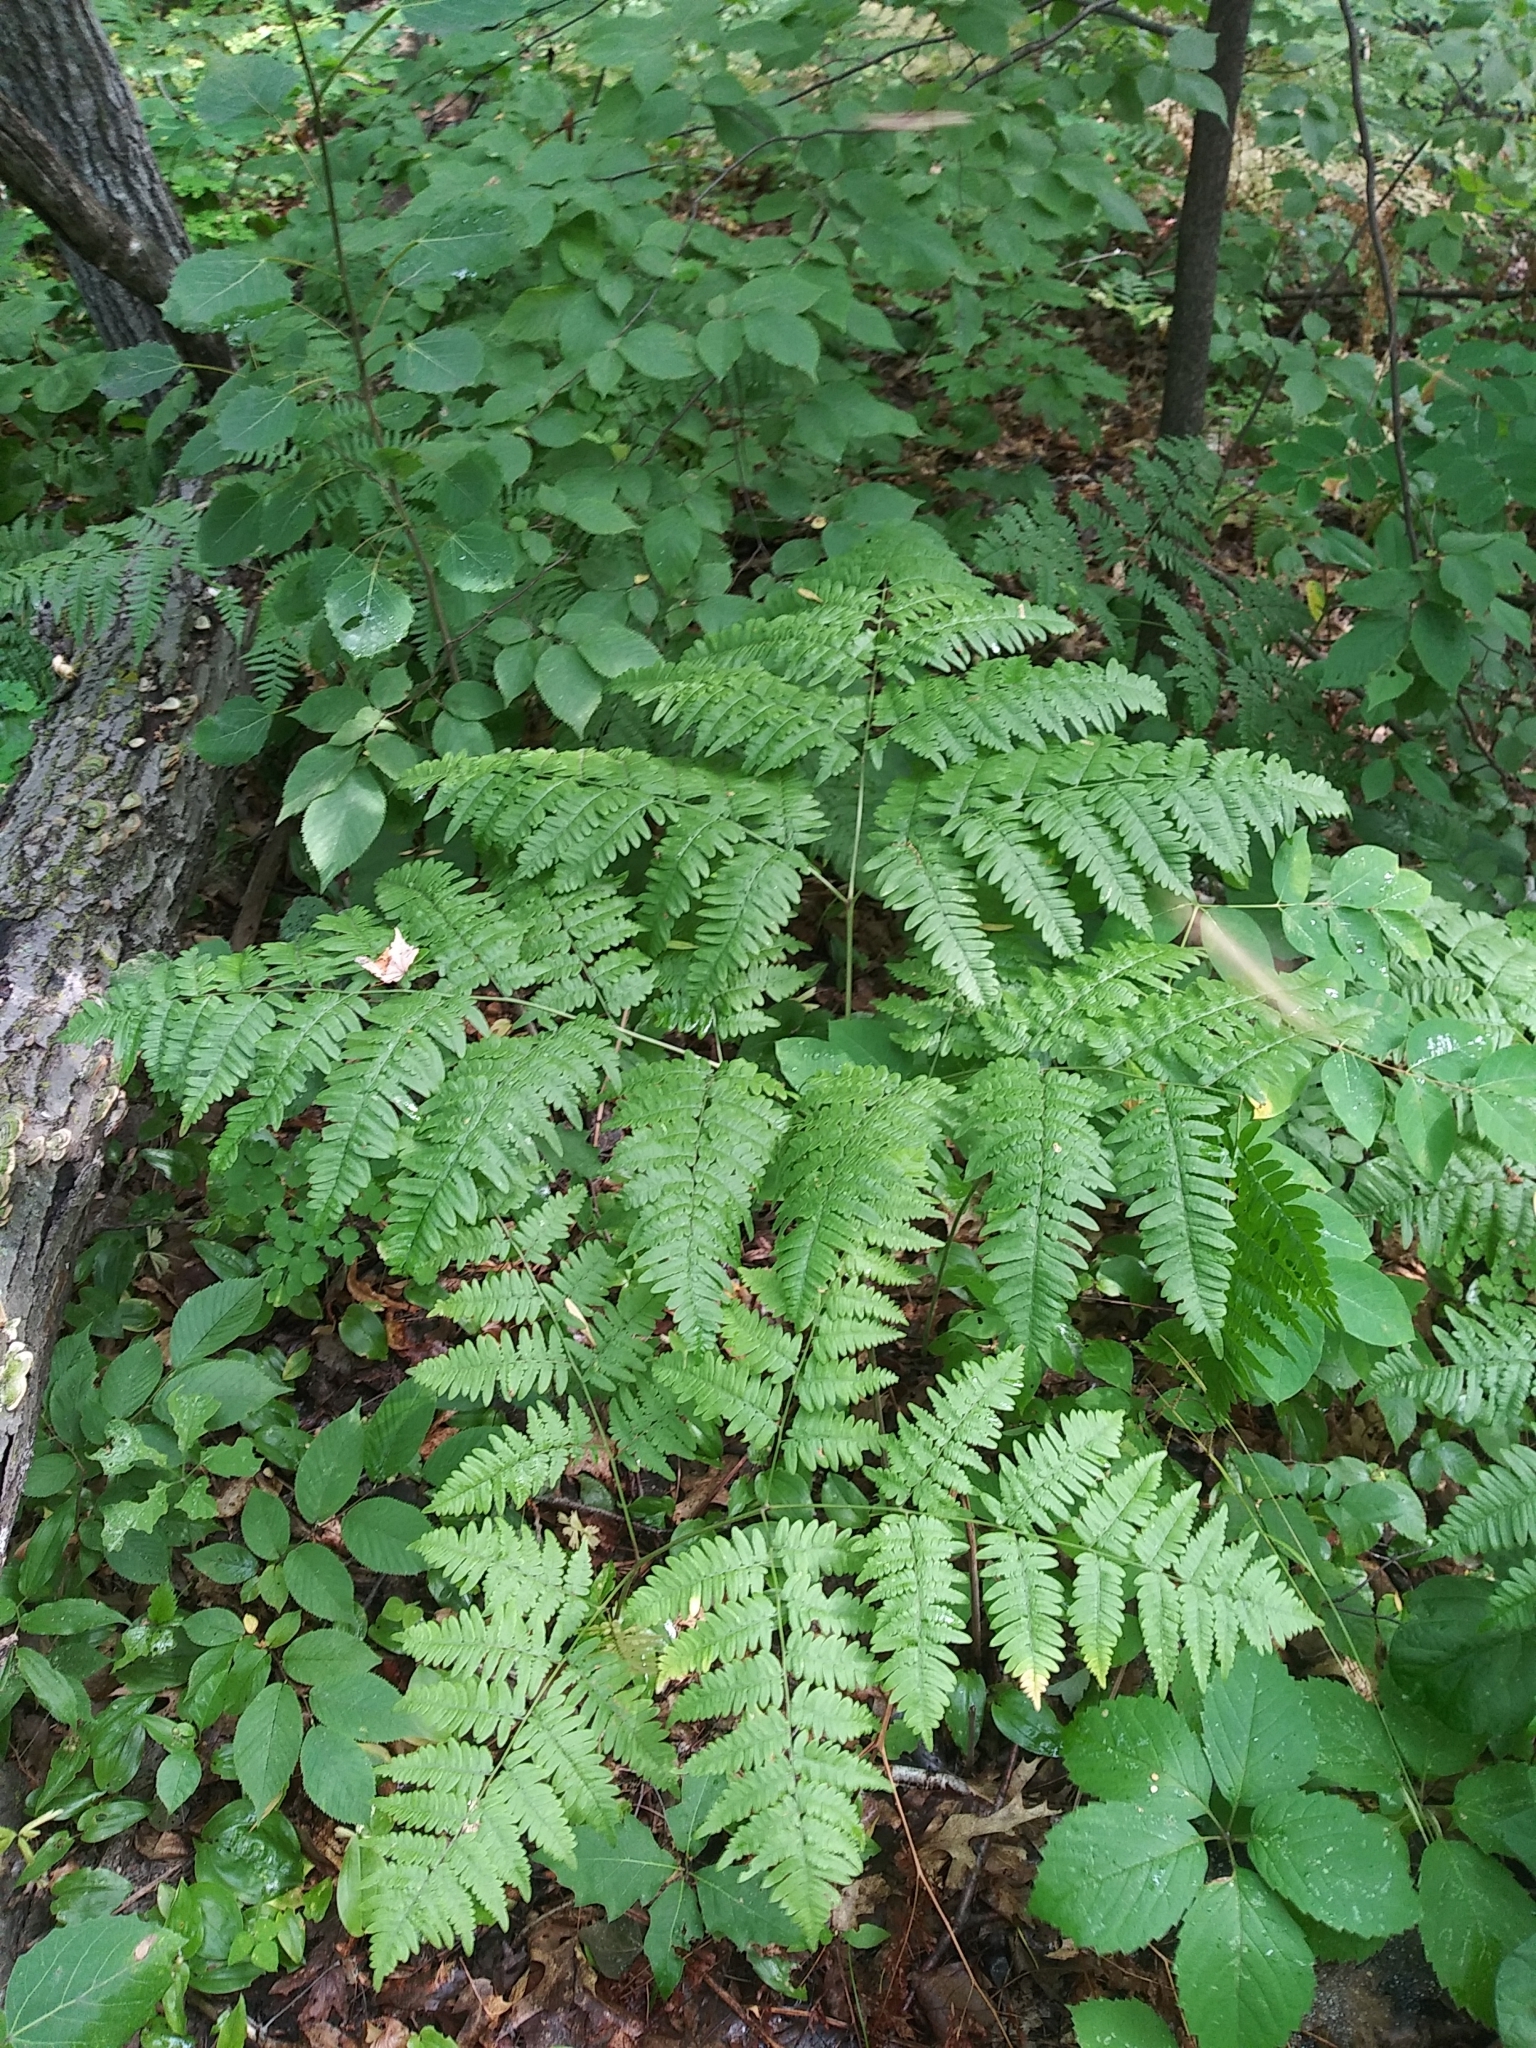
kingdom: Plantae
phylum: Tracheophyta
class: Polypodiopsida
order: Polypodiales
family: Dennstaedtiaceae
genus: Pteridium
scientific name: Pteridium aquilinum
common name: Bracken
